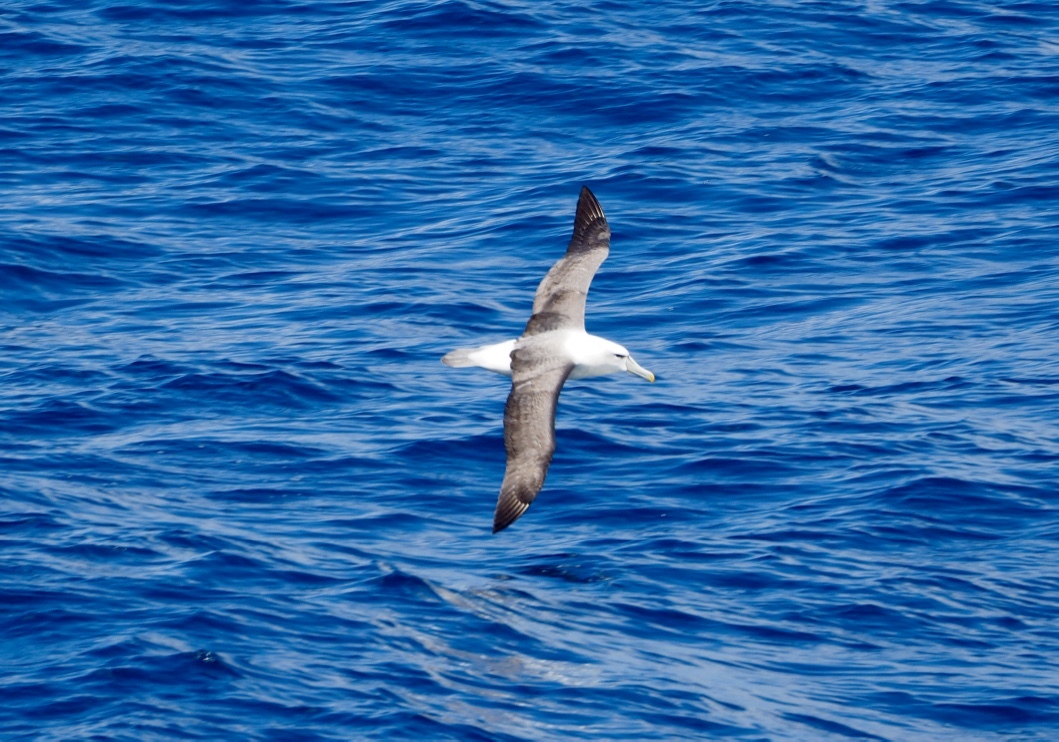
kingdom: Animalia
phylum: Chordata
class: Aves
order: Procellariiformes
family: Diomedeidae
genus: Thalassarche
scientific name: Thalassarche cauta
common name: Shy albatross
